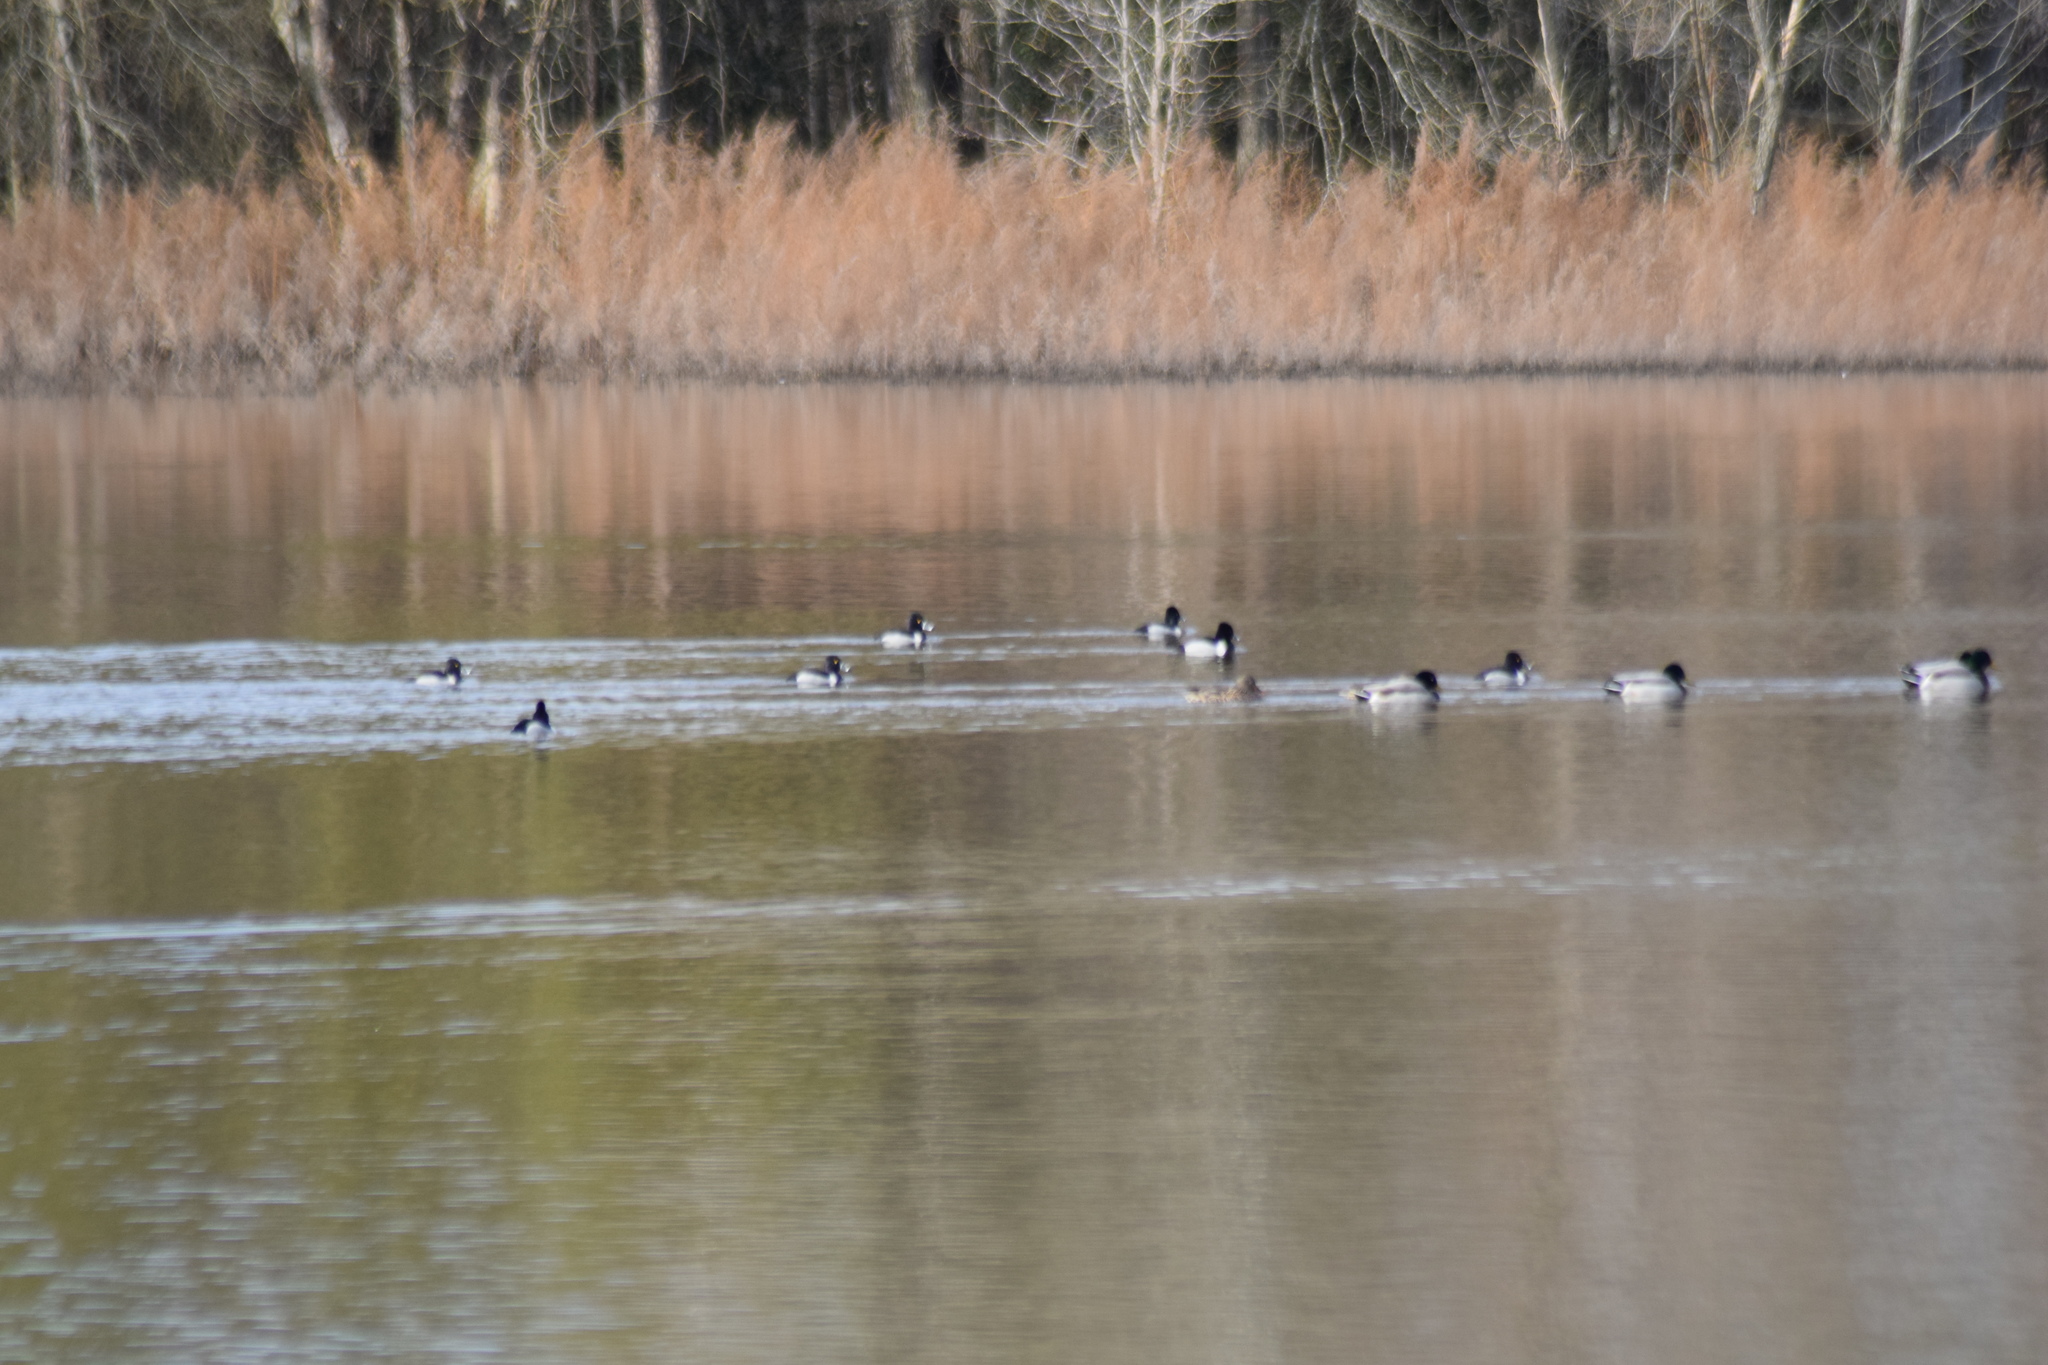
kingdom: Animalia
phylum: Chordata
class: Aves
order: Anseriformes
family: Anatidae
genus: Aythya
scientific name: Aythya collaris
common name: Ring-necked duck
